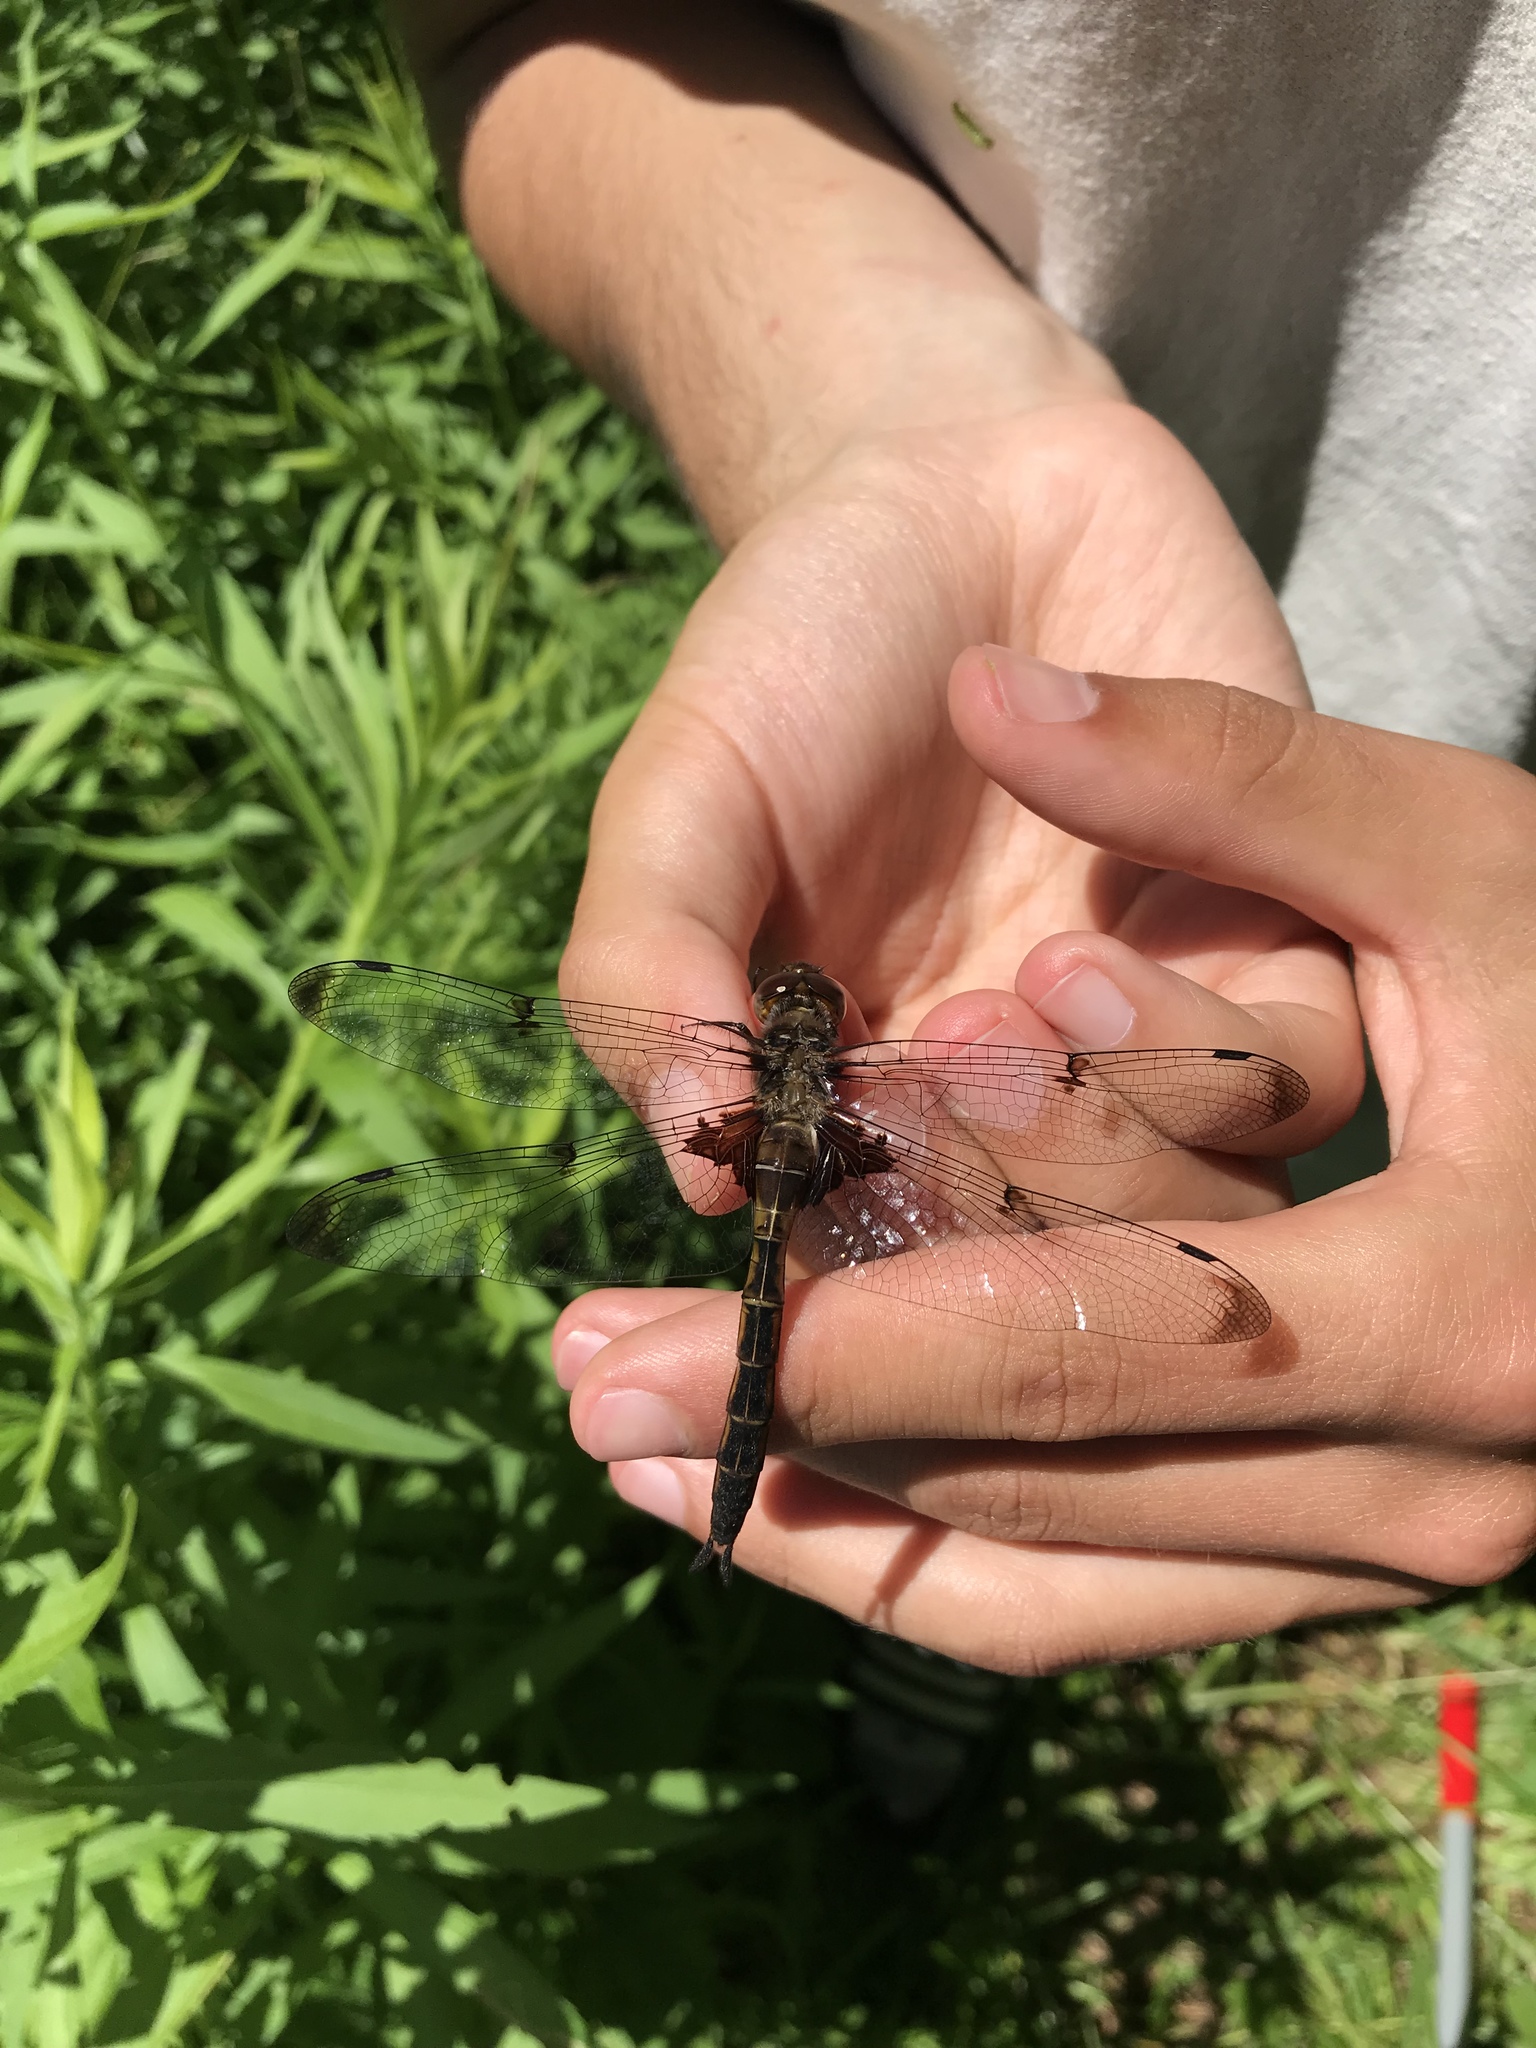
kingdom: Animalia
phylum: Arthropoda
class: Insecta
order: Odonata
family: Corduliidae
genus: Epitheca
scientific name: Epitheca princeps
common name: Prince baskettail
